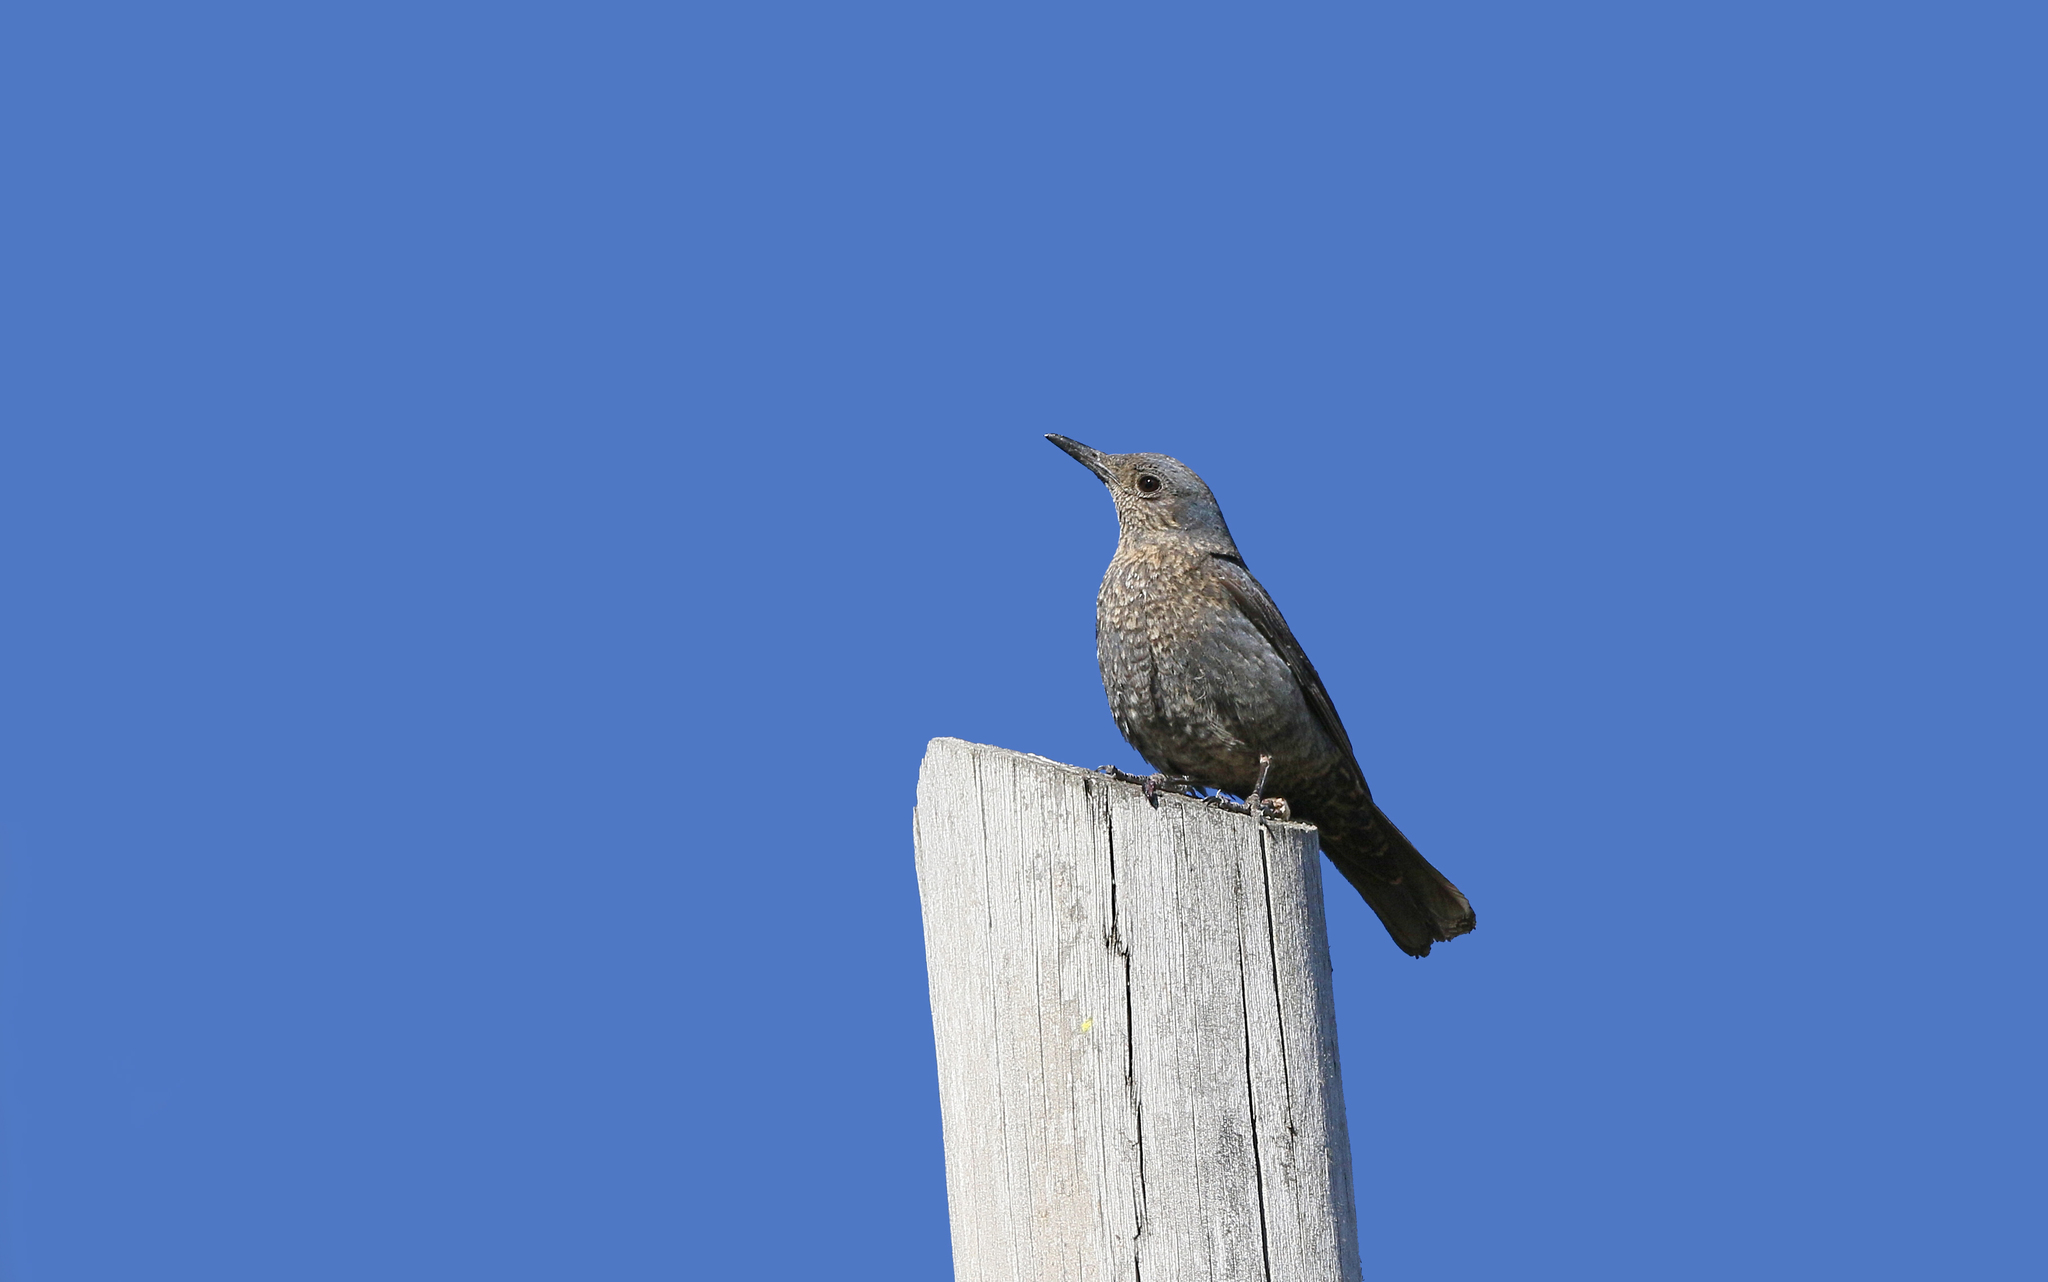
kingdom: Animalia
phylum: Chordata
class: Aves
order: Passeriformes
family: Muscicapidae
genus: Monticola
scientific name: Monticola solitarius
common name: Blue rock thrush
